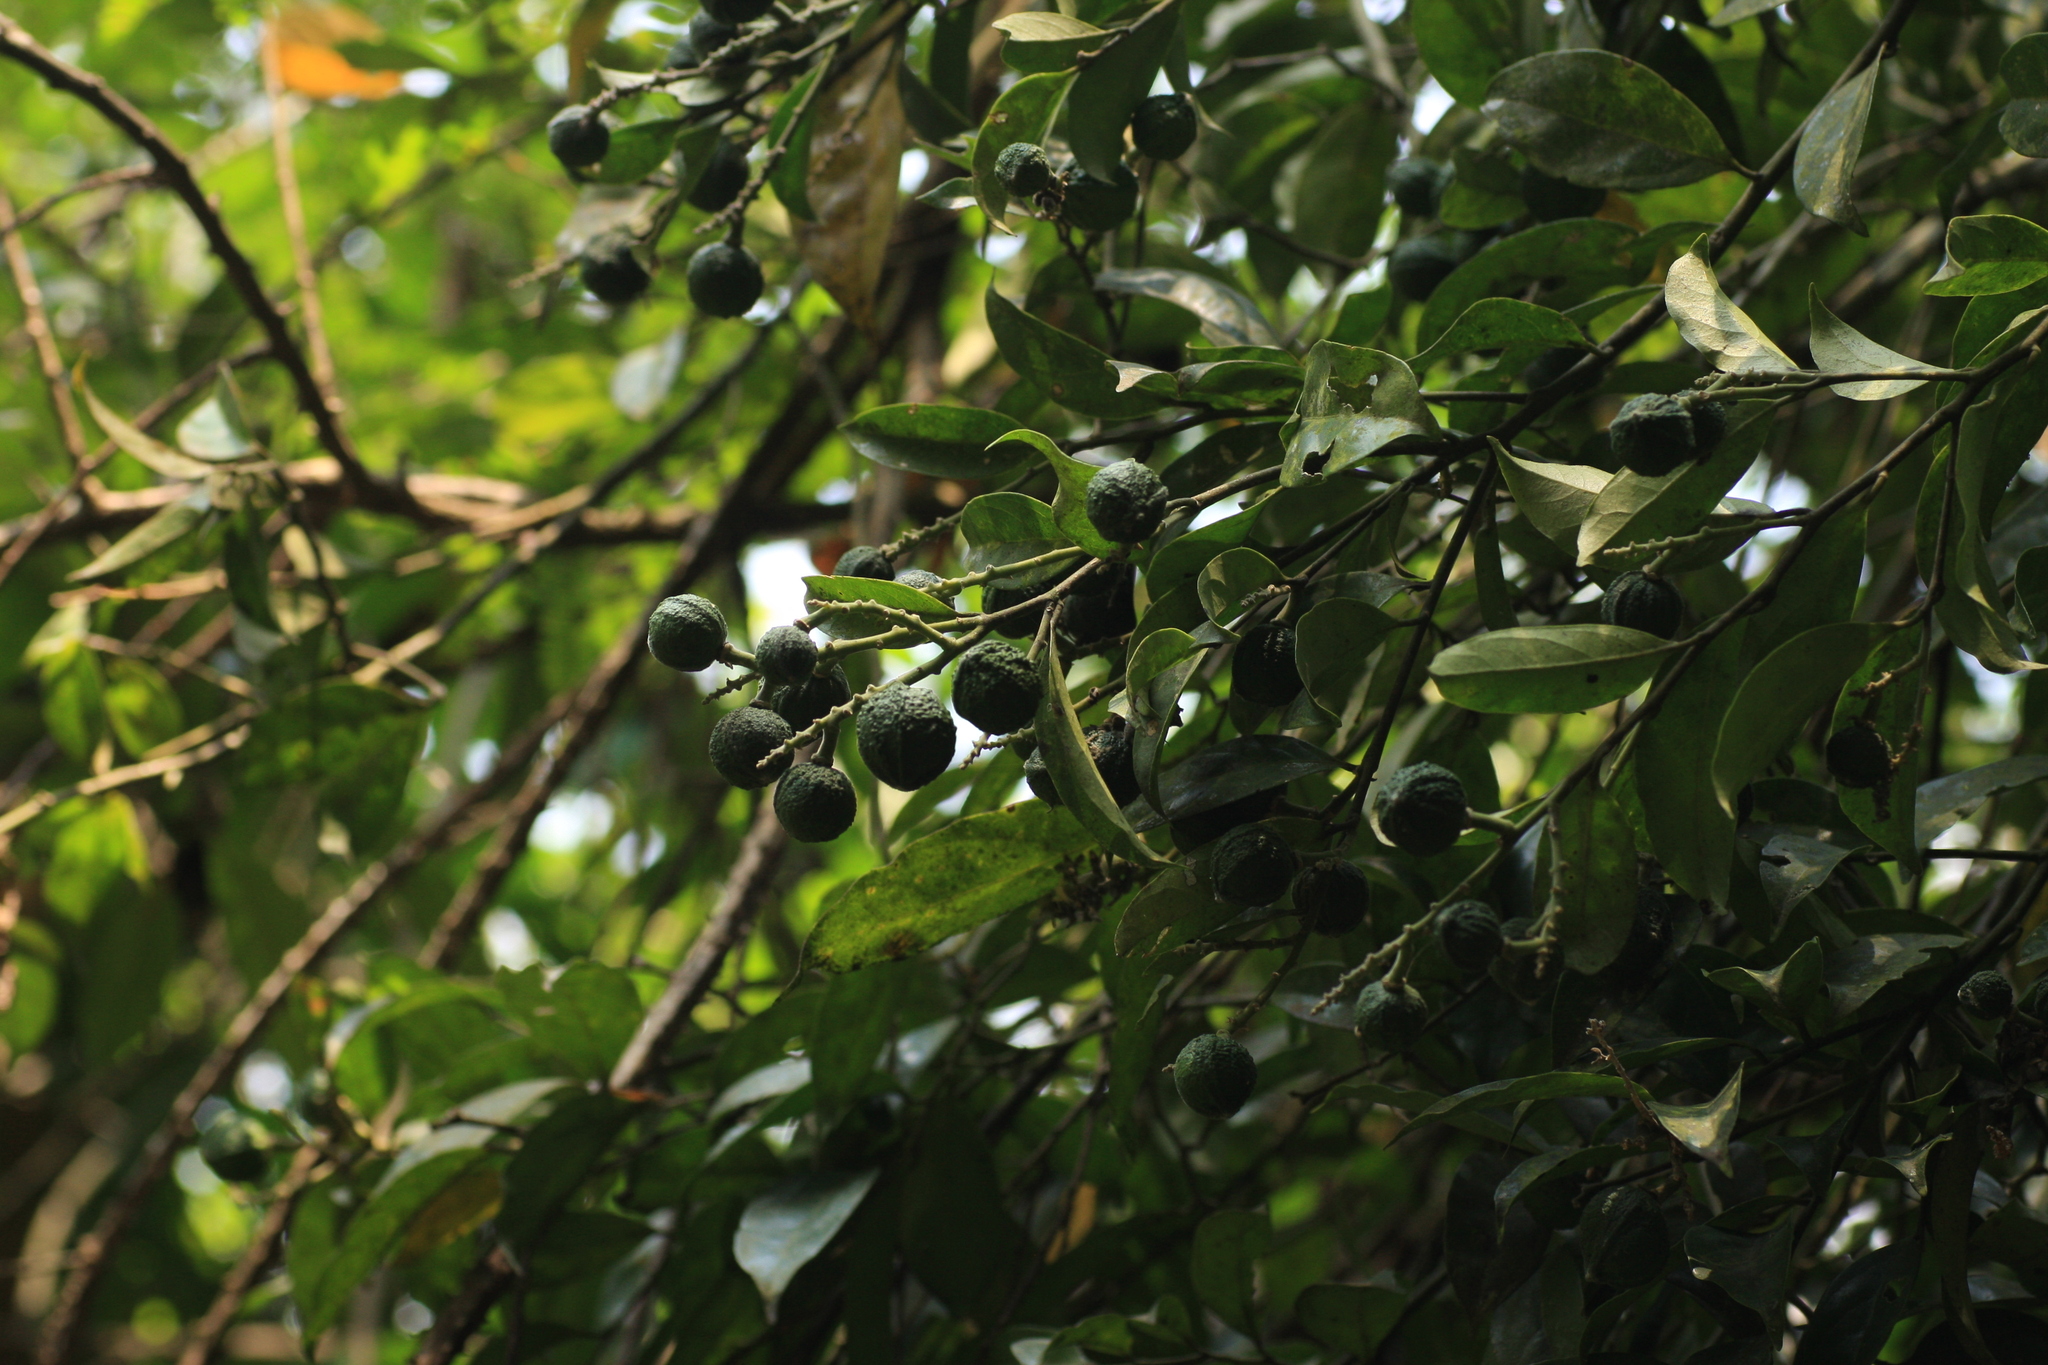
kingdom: Plantae
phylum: Tracheophyta
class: Magnoliopsida
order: Fabales
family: Polygalaceae
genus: Xanthophyllum
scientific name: Xanthophyllum flavescens
